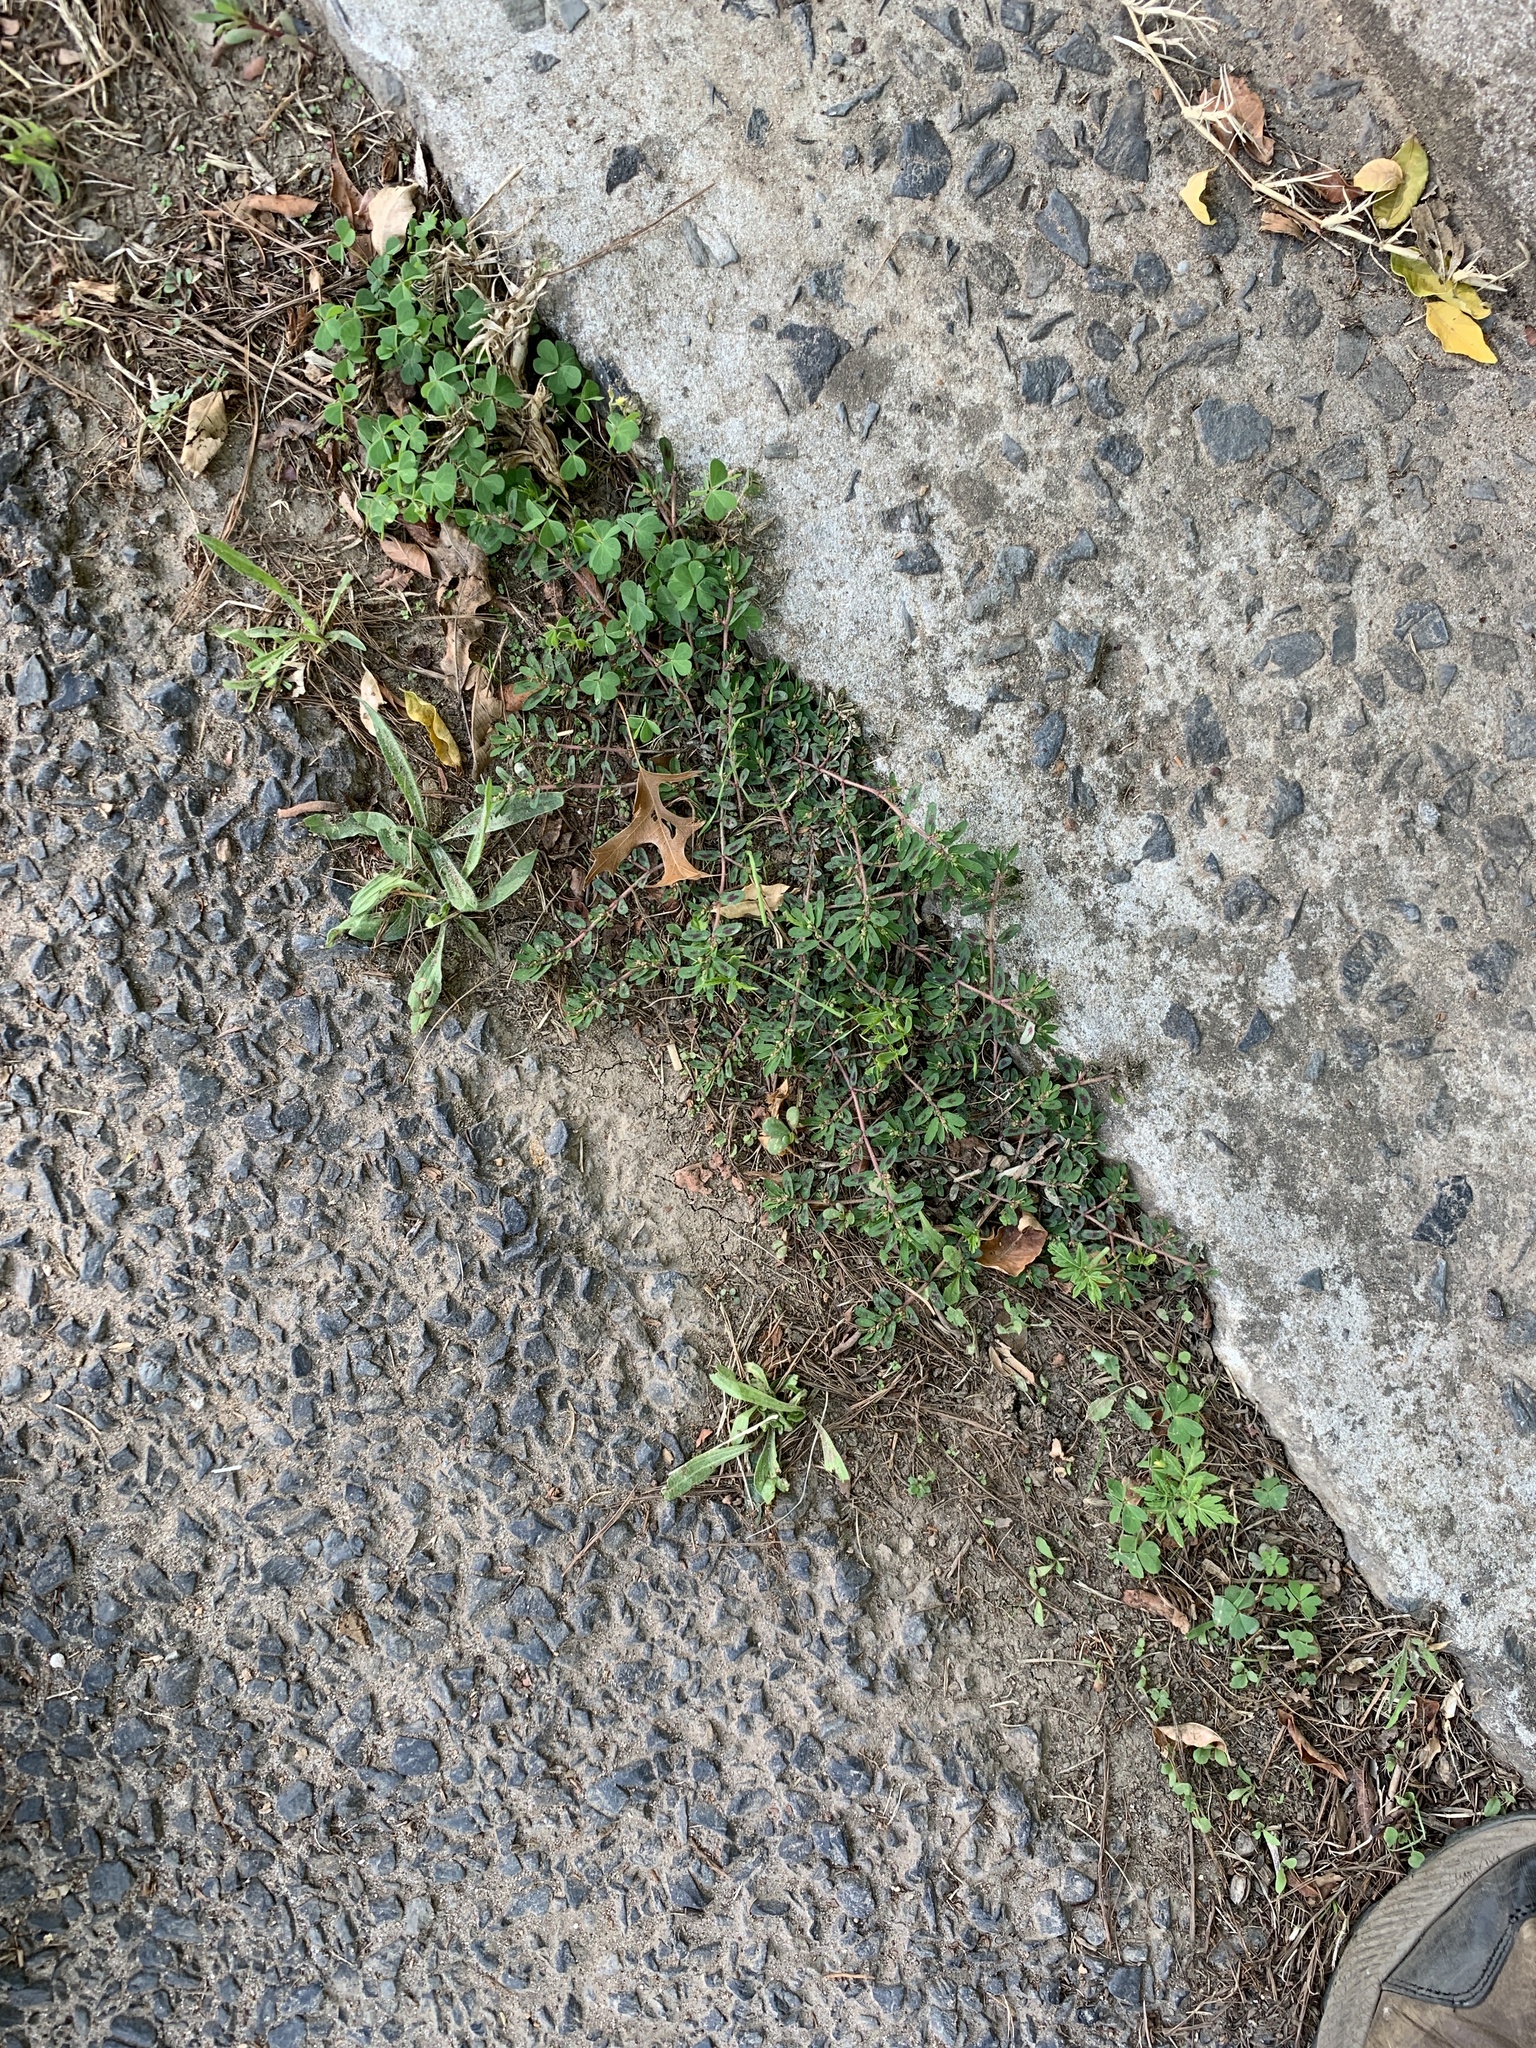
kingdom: Plantae
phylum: Tracheophyta
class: Magnoliopsida
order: Malpighiales
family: Euphorbiaceae
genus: Euphorbia
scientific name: Euphorbia maculata
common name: Spotted spurge
